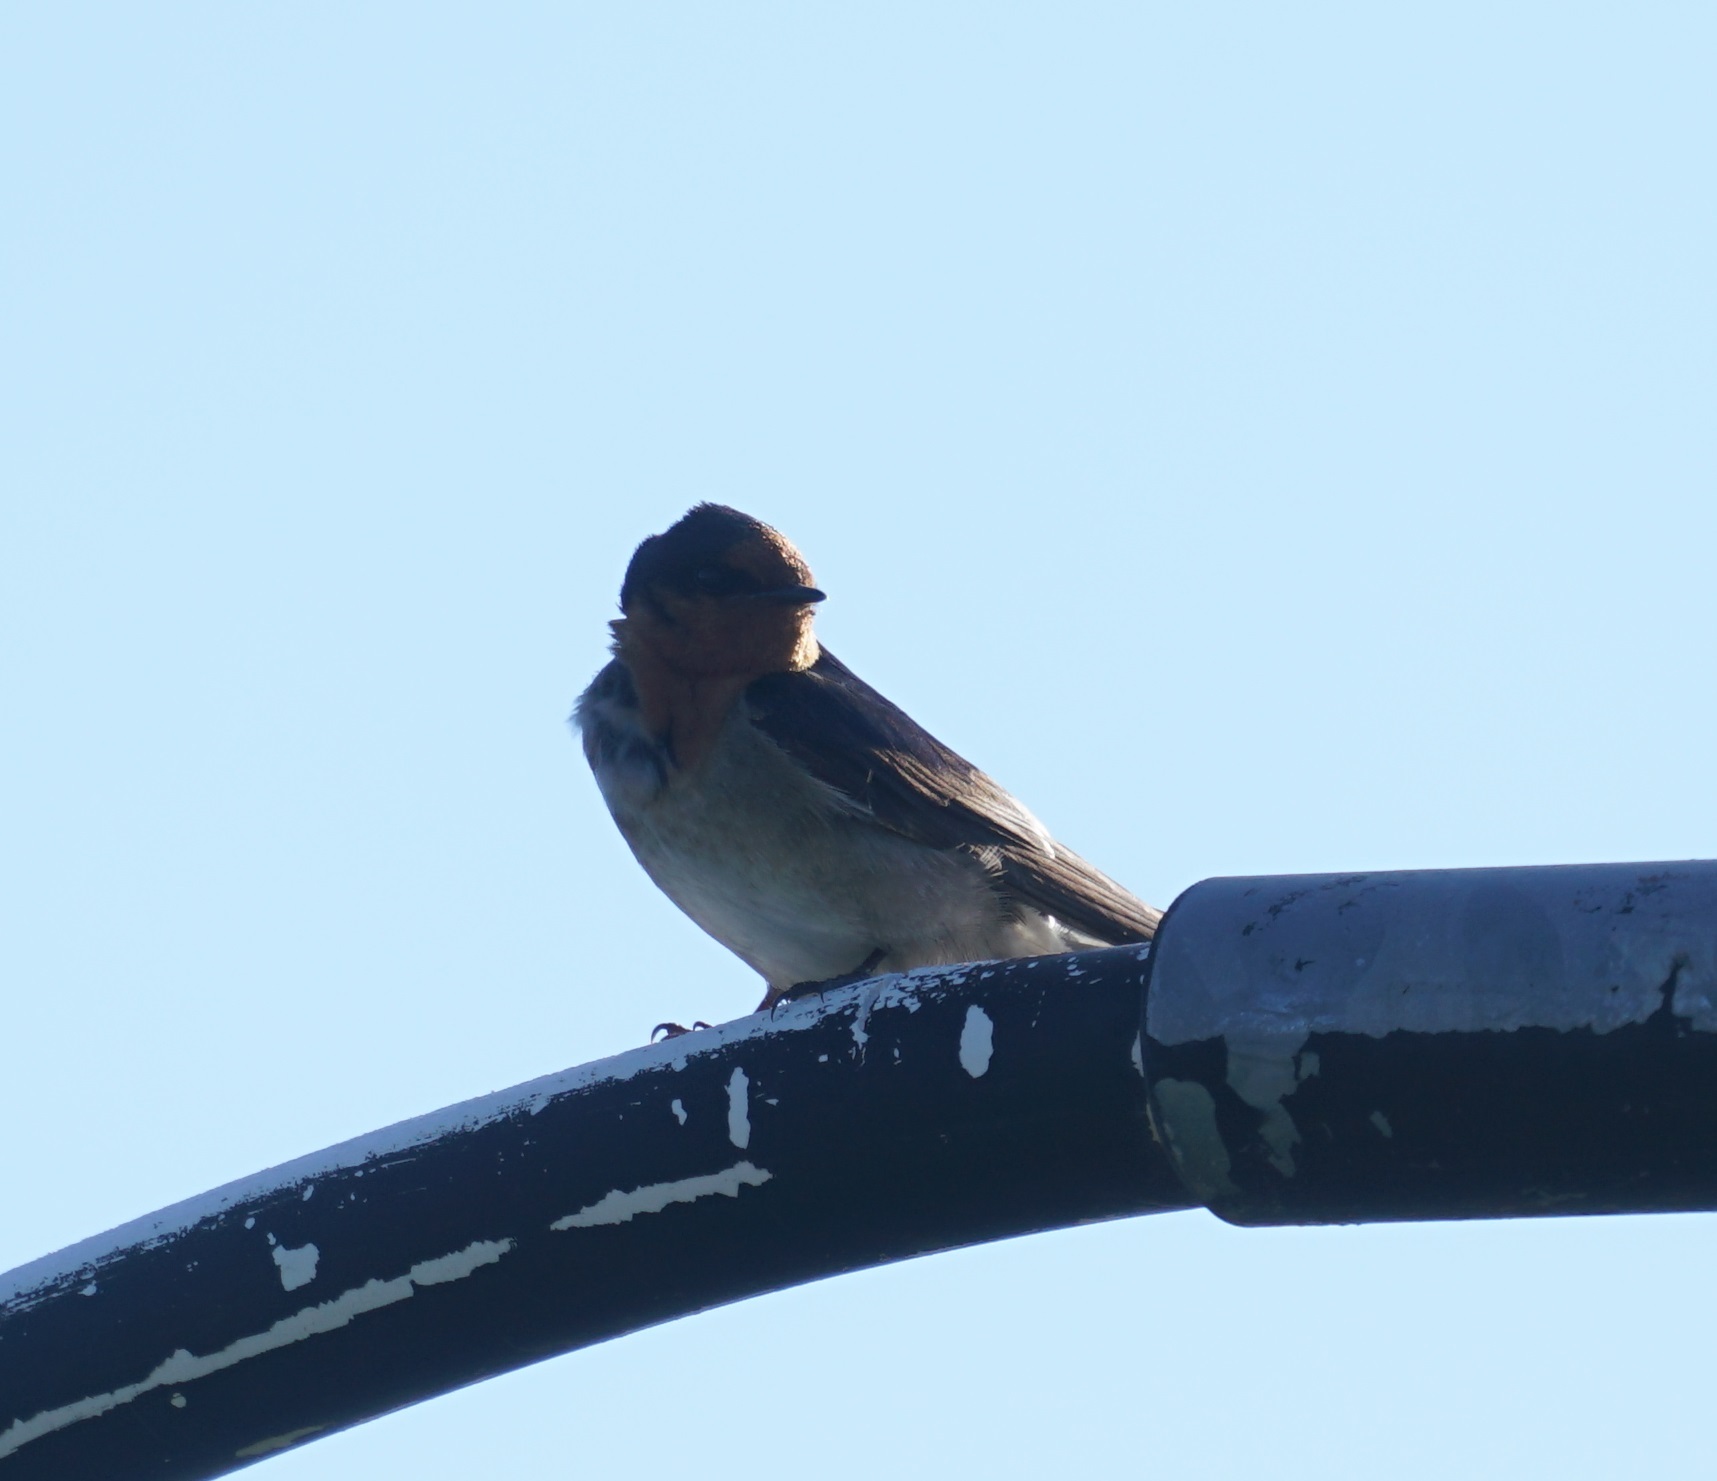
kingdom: Animalia
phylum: Chordata
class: Aves
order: Passeriformes
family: Hirundinidae
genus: Hirundo
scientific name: Hirundo neoxena
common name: Welcome swallow
